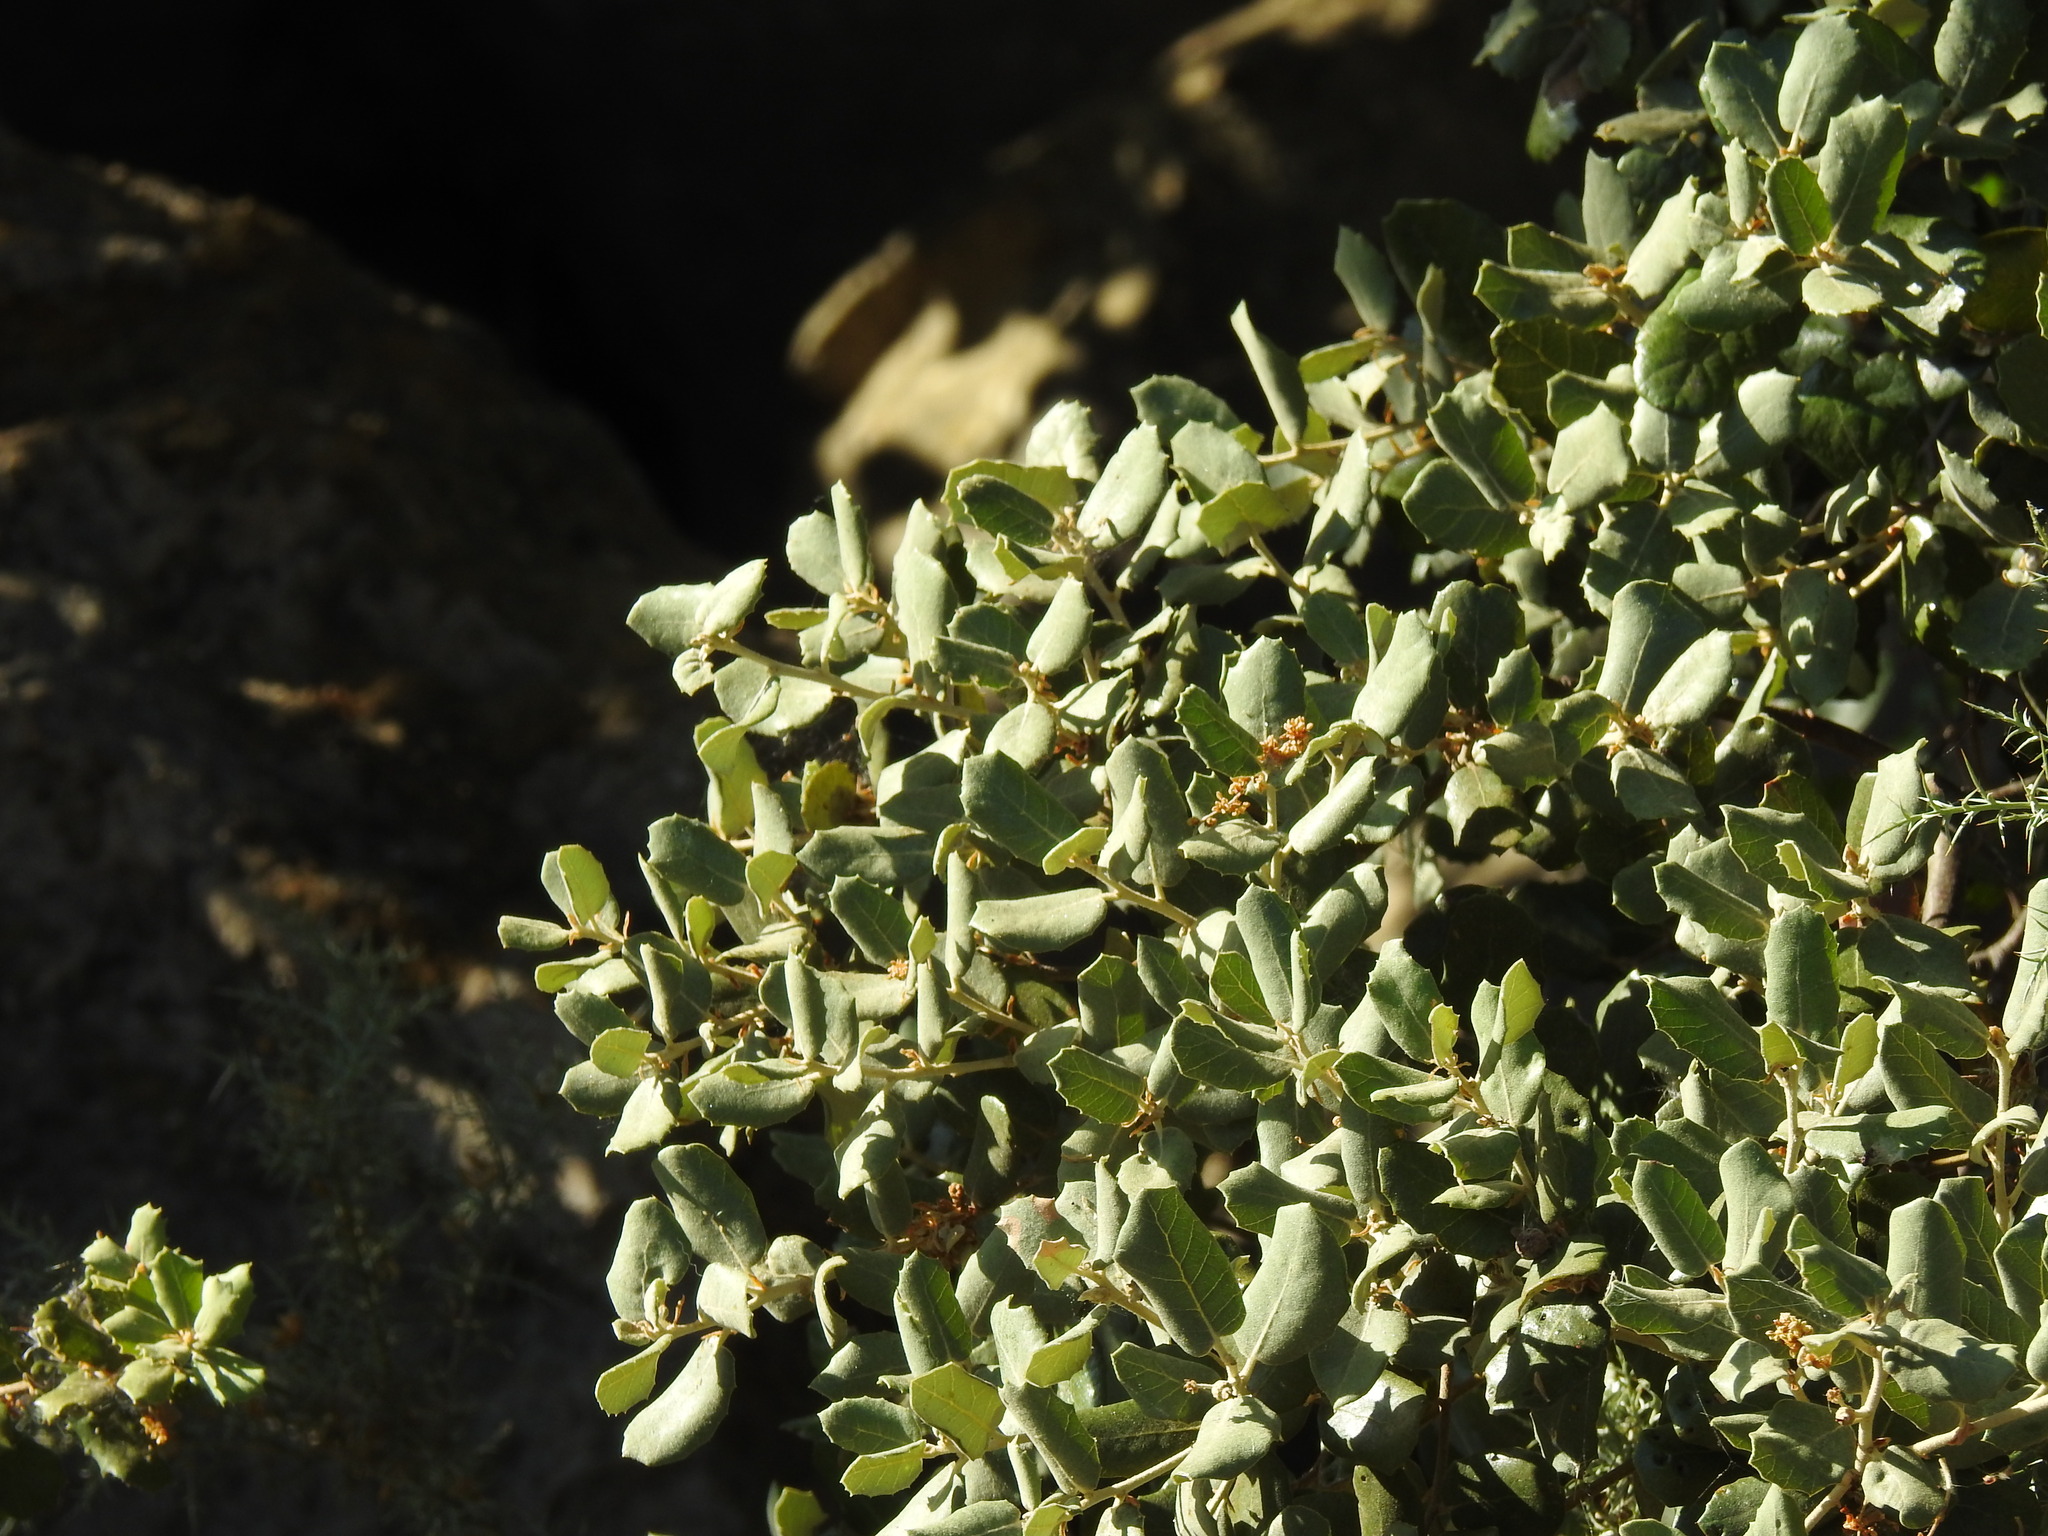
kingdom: Plantae
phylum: Tracheophyta
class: Magnoliopsida
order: Fagales
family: Fagaceae
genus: Quercus
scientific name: Quercus rotundifolia
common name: Holm oak
